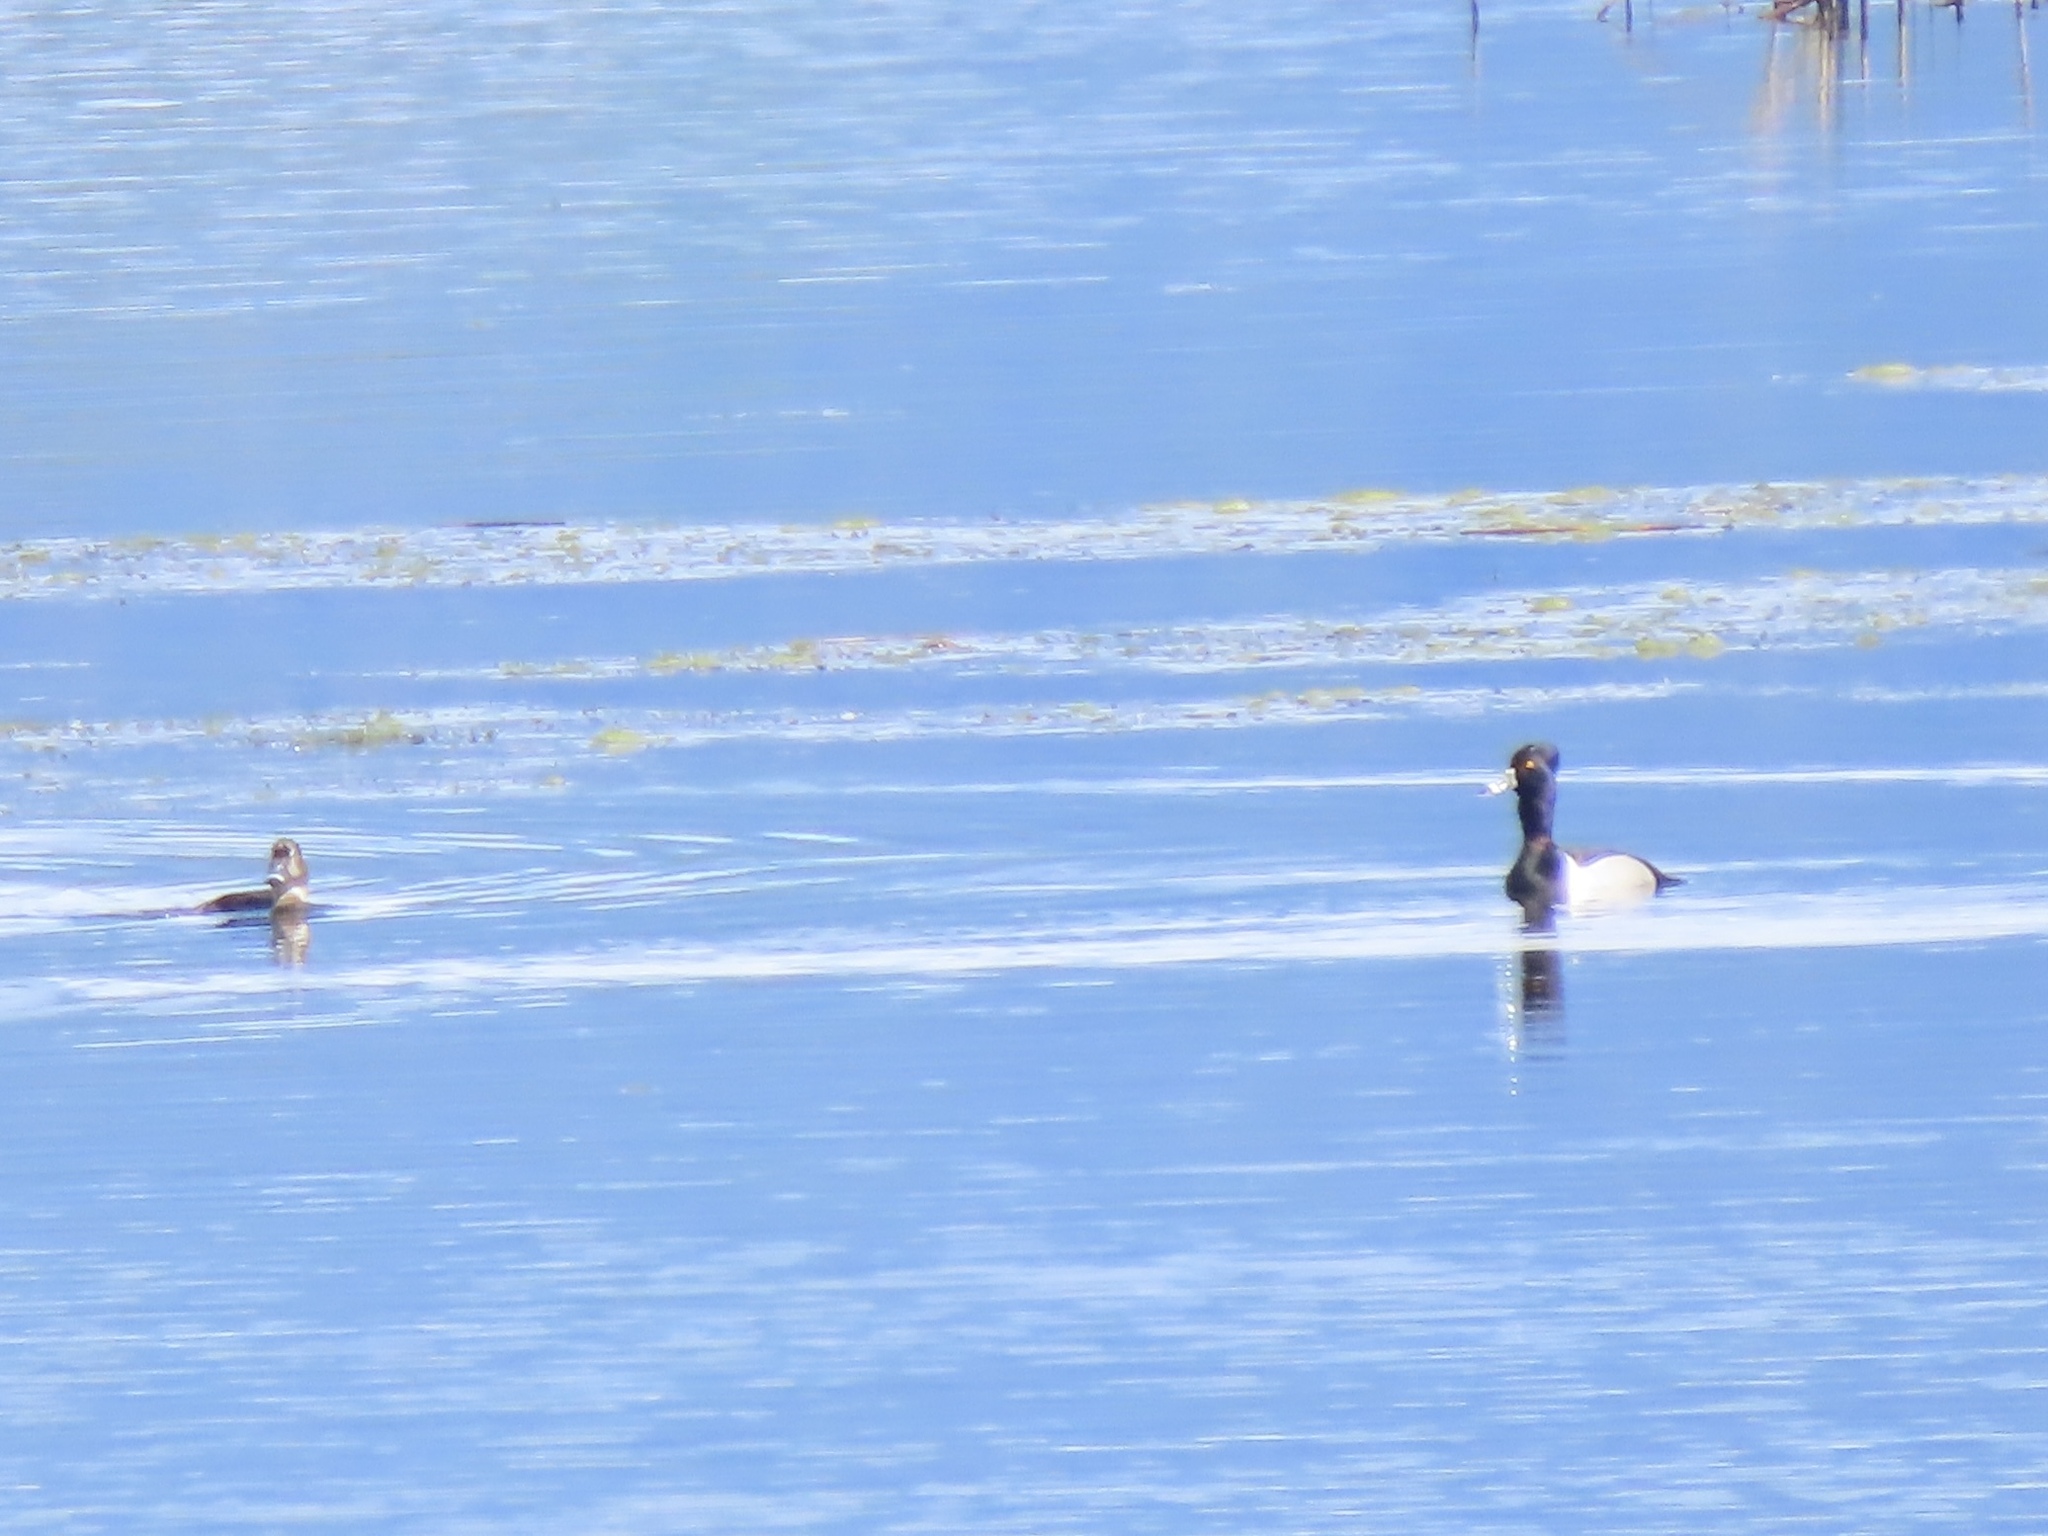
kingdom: Animalia
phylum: Chordata
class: Aves
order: Anseriformes
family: Anatidae
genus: Aythya
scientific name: Aythya collaris
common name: Ring-necked duck
